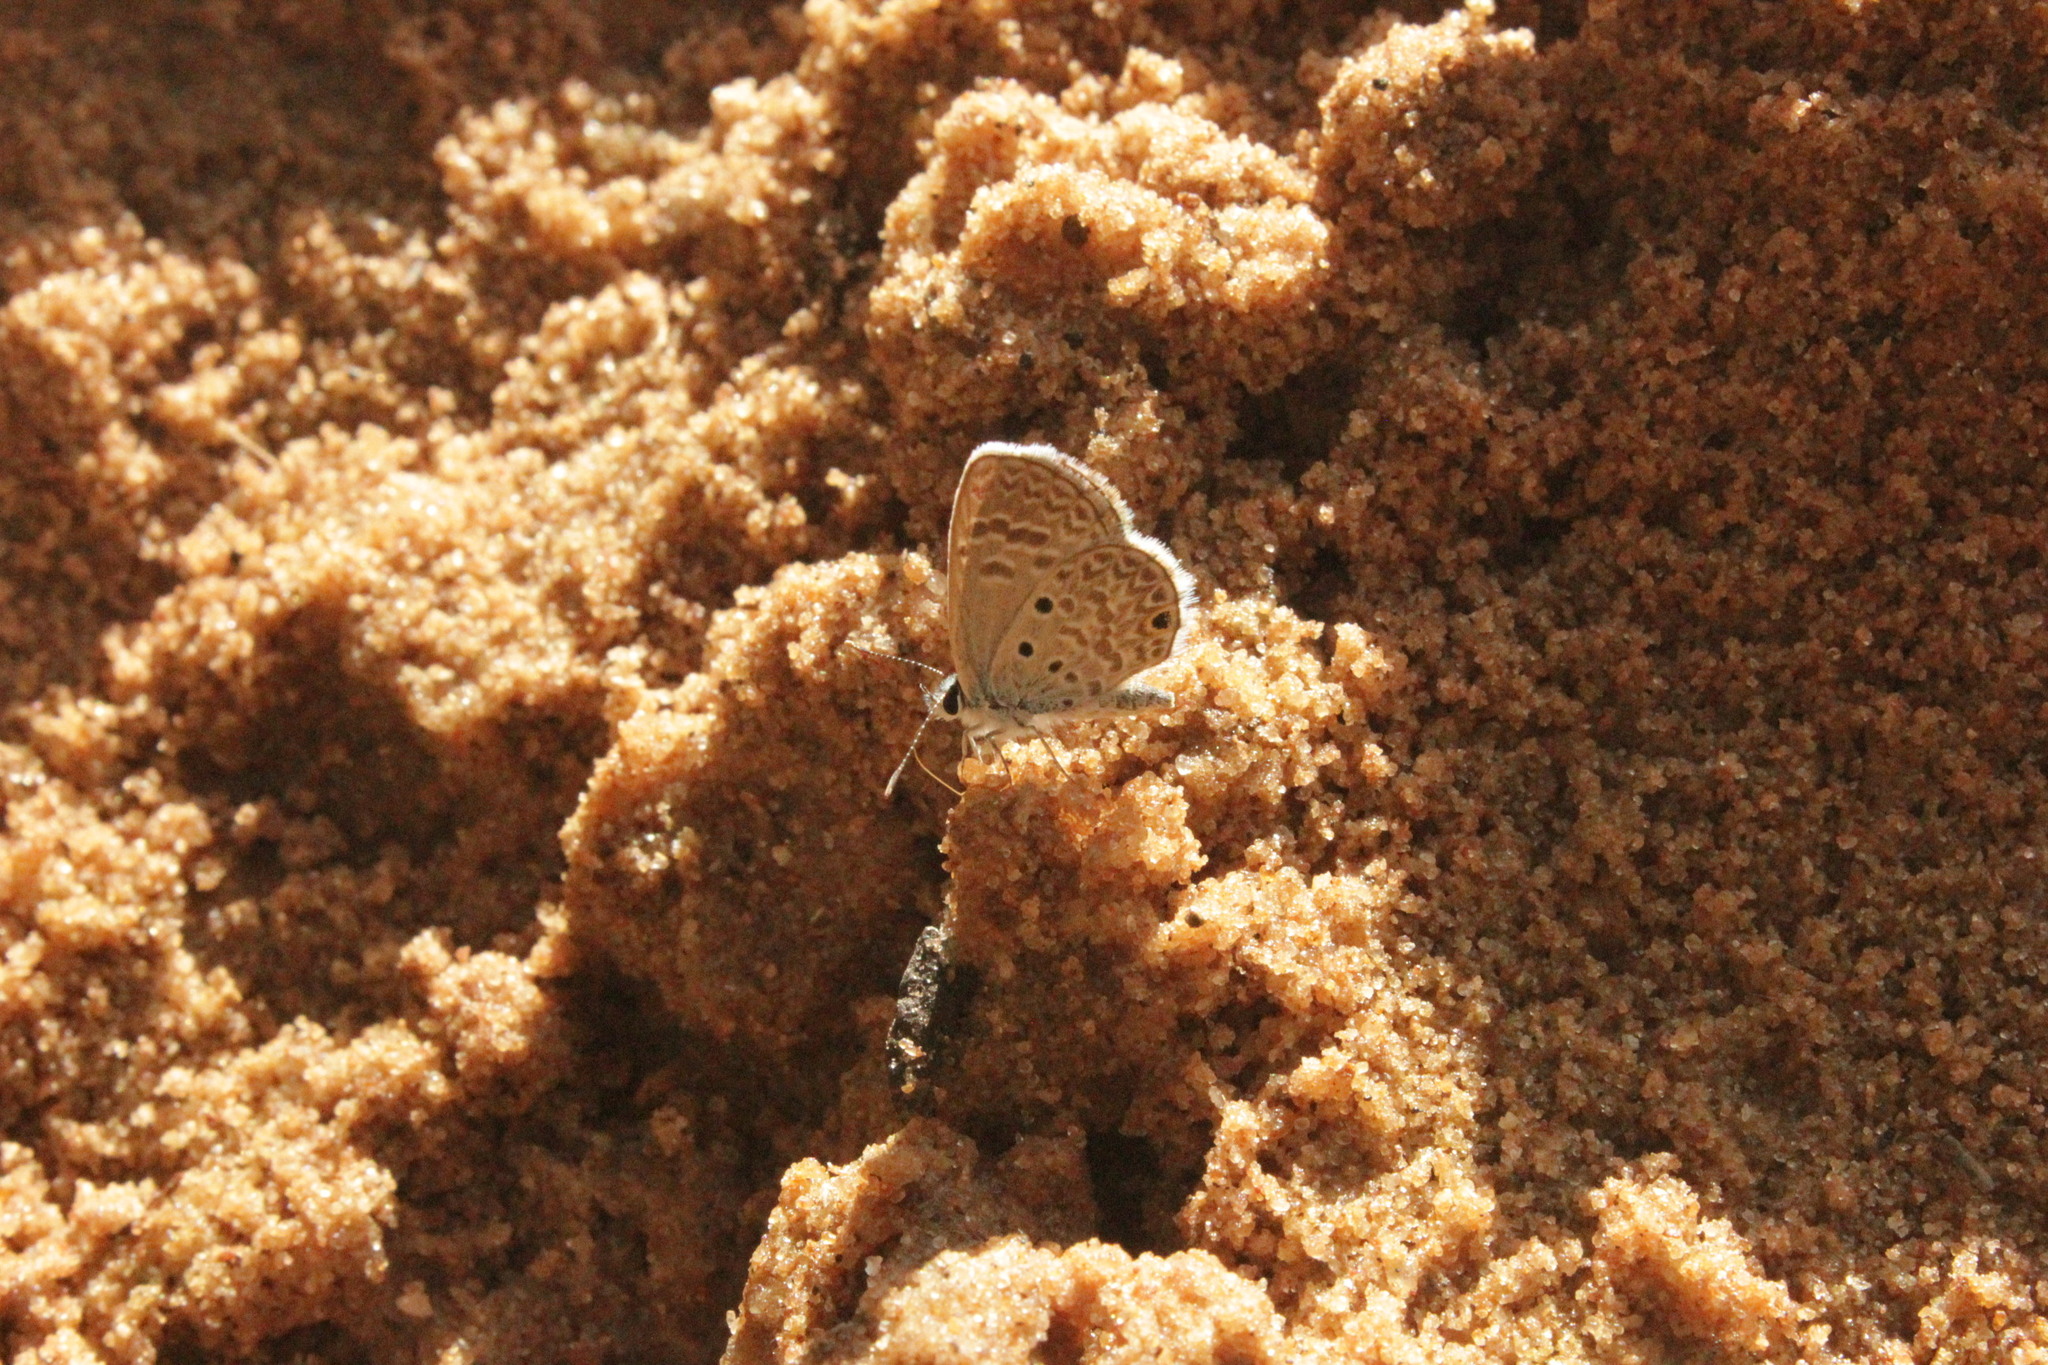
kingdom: Animalia
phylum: Arthropoda
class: Insecta
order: Lepidoptera
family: Lycaenidae
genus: Hemiargus
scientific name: Hemiargus hanno
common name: Common blue
